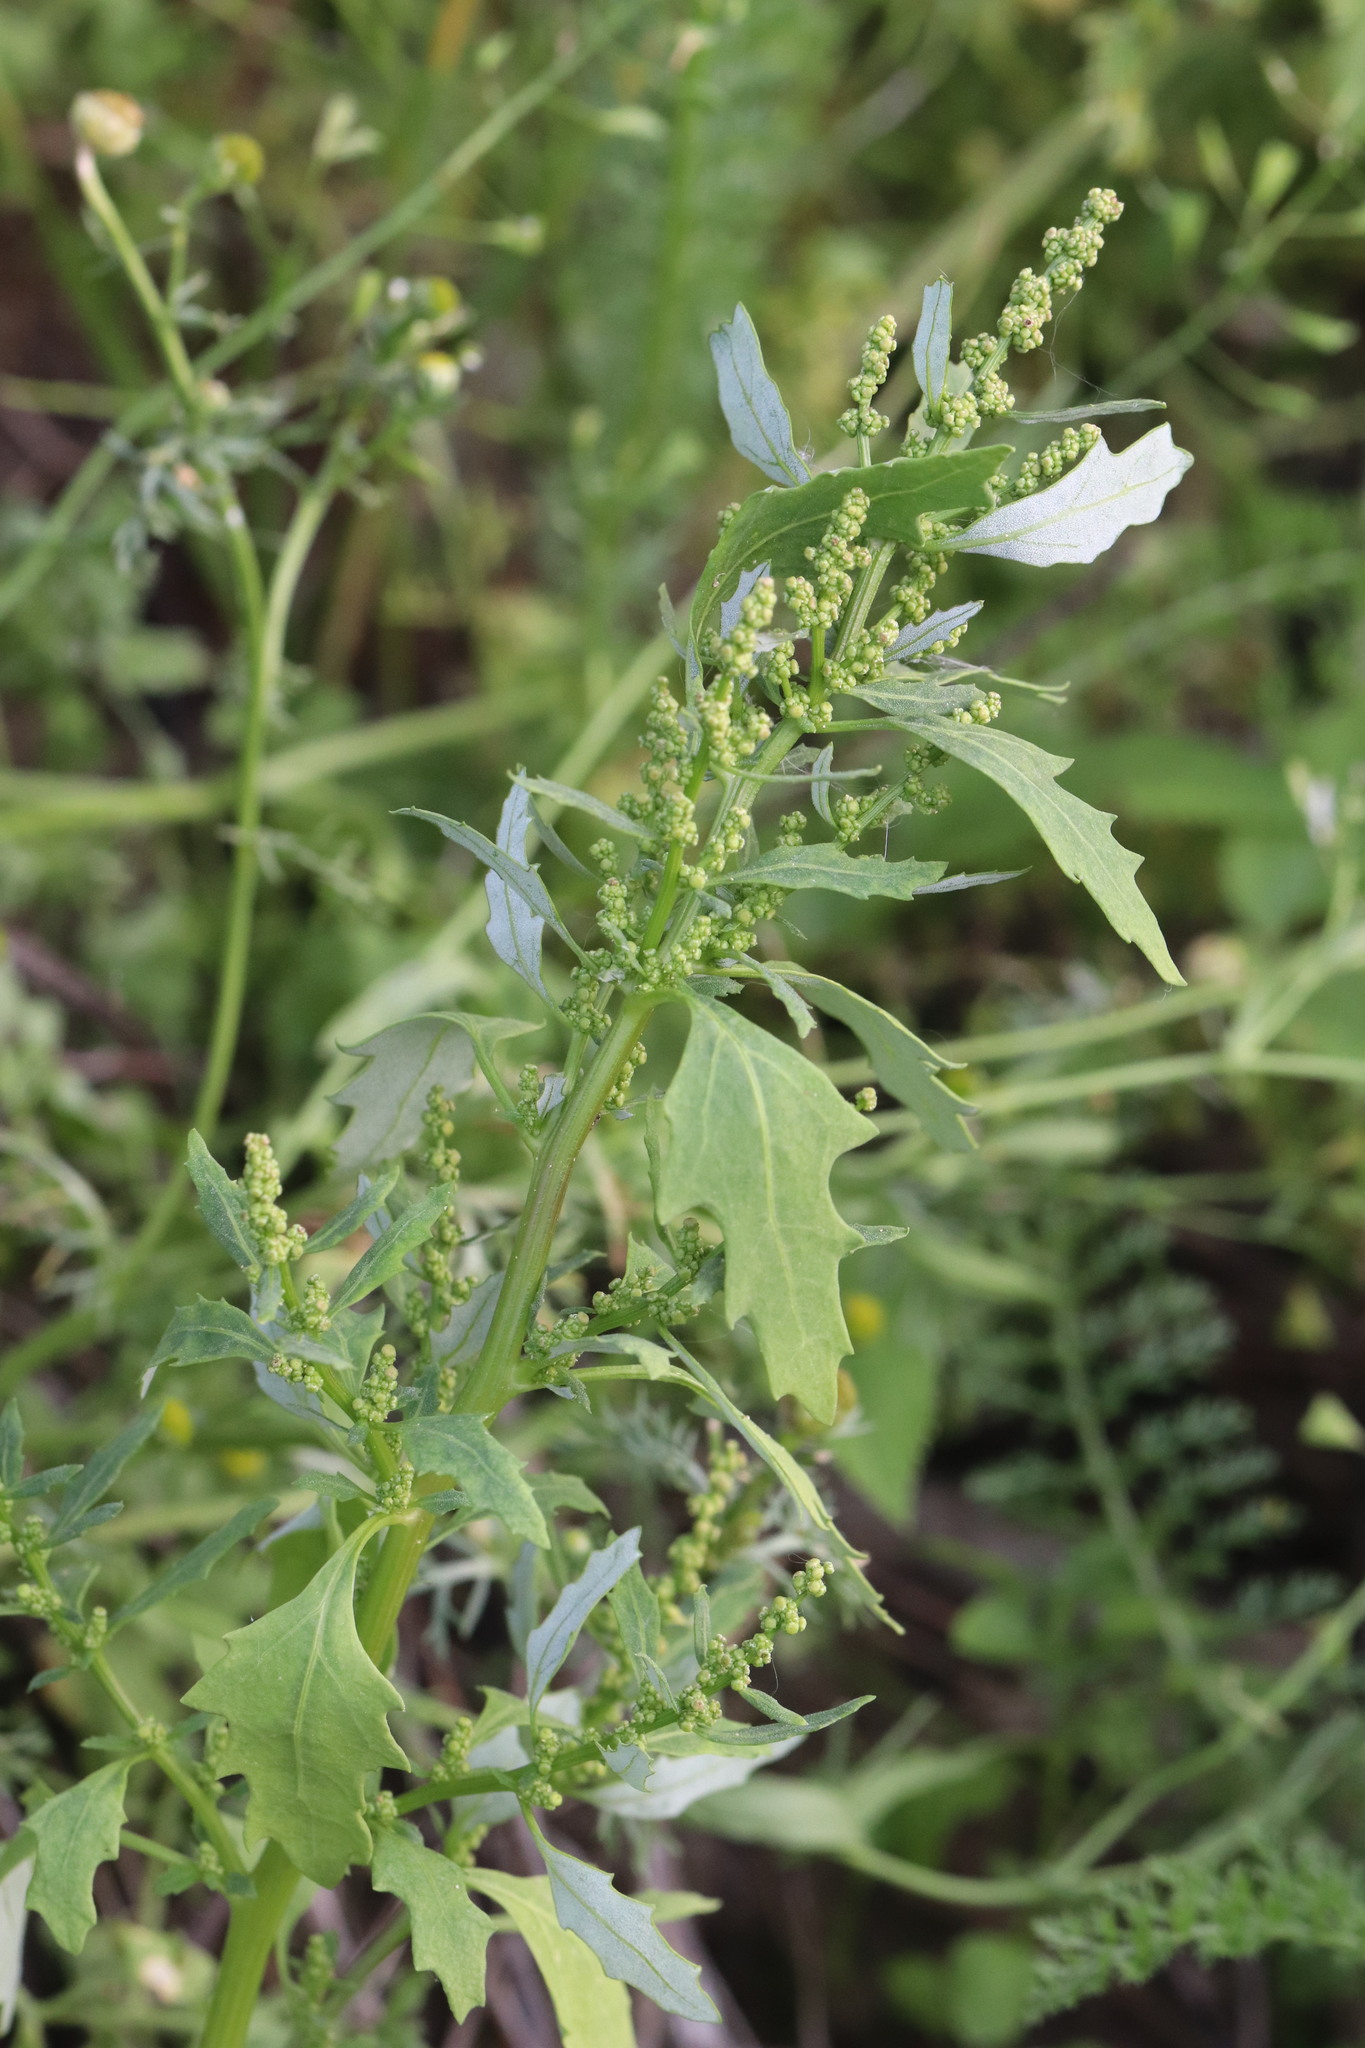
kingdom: Plantae
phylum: Tracheophyta
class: Magnoliopsida
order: Caryophyllales
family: Amaranthaceae
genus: Oxybasis
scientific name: Oxybasis glauca
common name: Glaucous goosefoot
